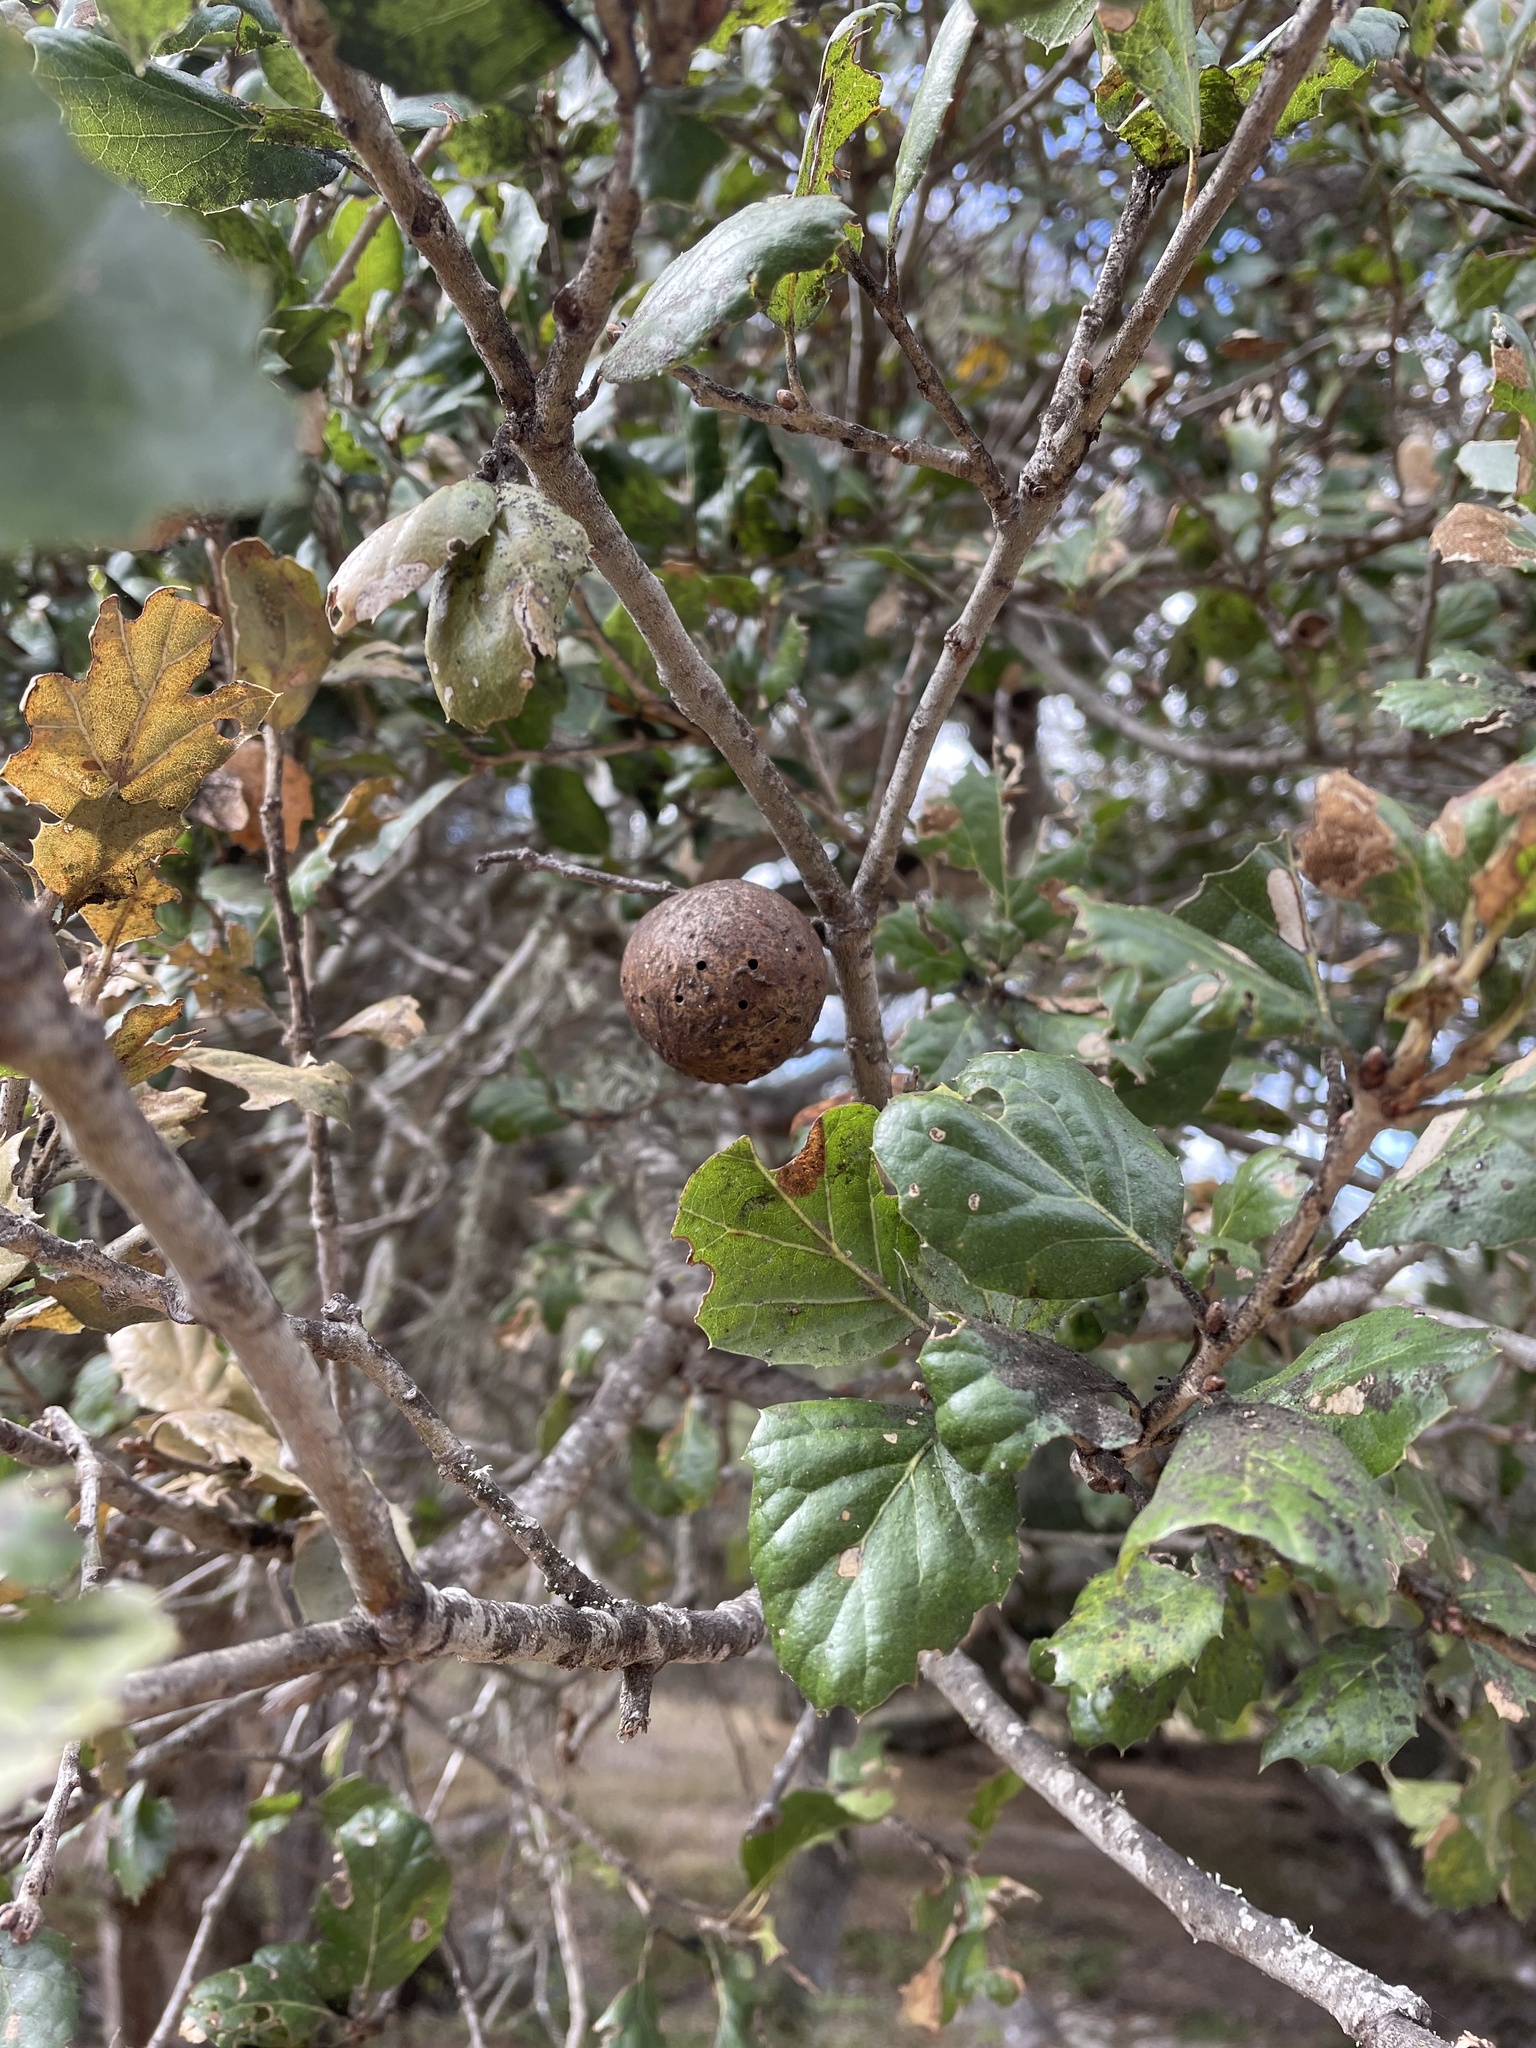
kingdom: Animalia
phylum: Arthropoda
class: Insecta
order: Hymenoptera
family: Cynipidae
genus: Amphibolips
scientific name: Amphibolips quercuspomiformis
